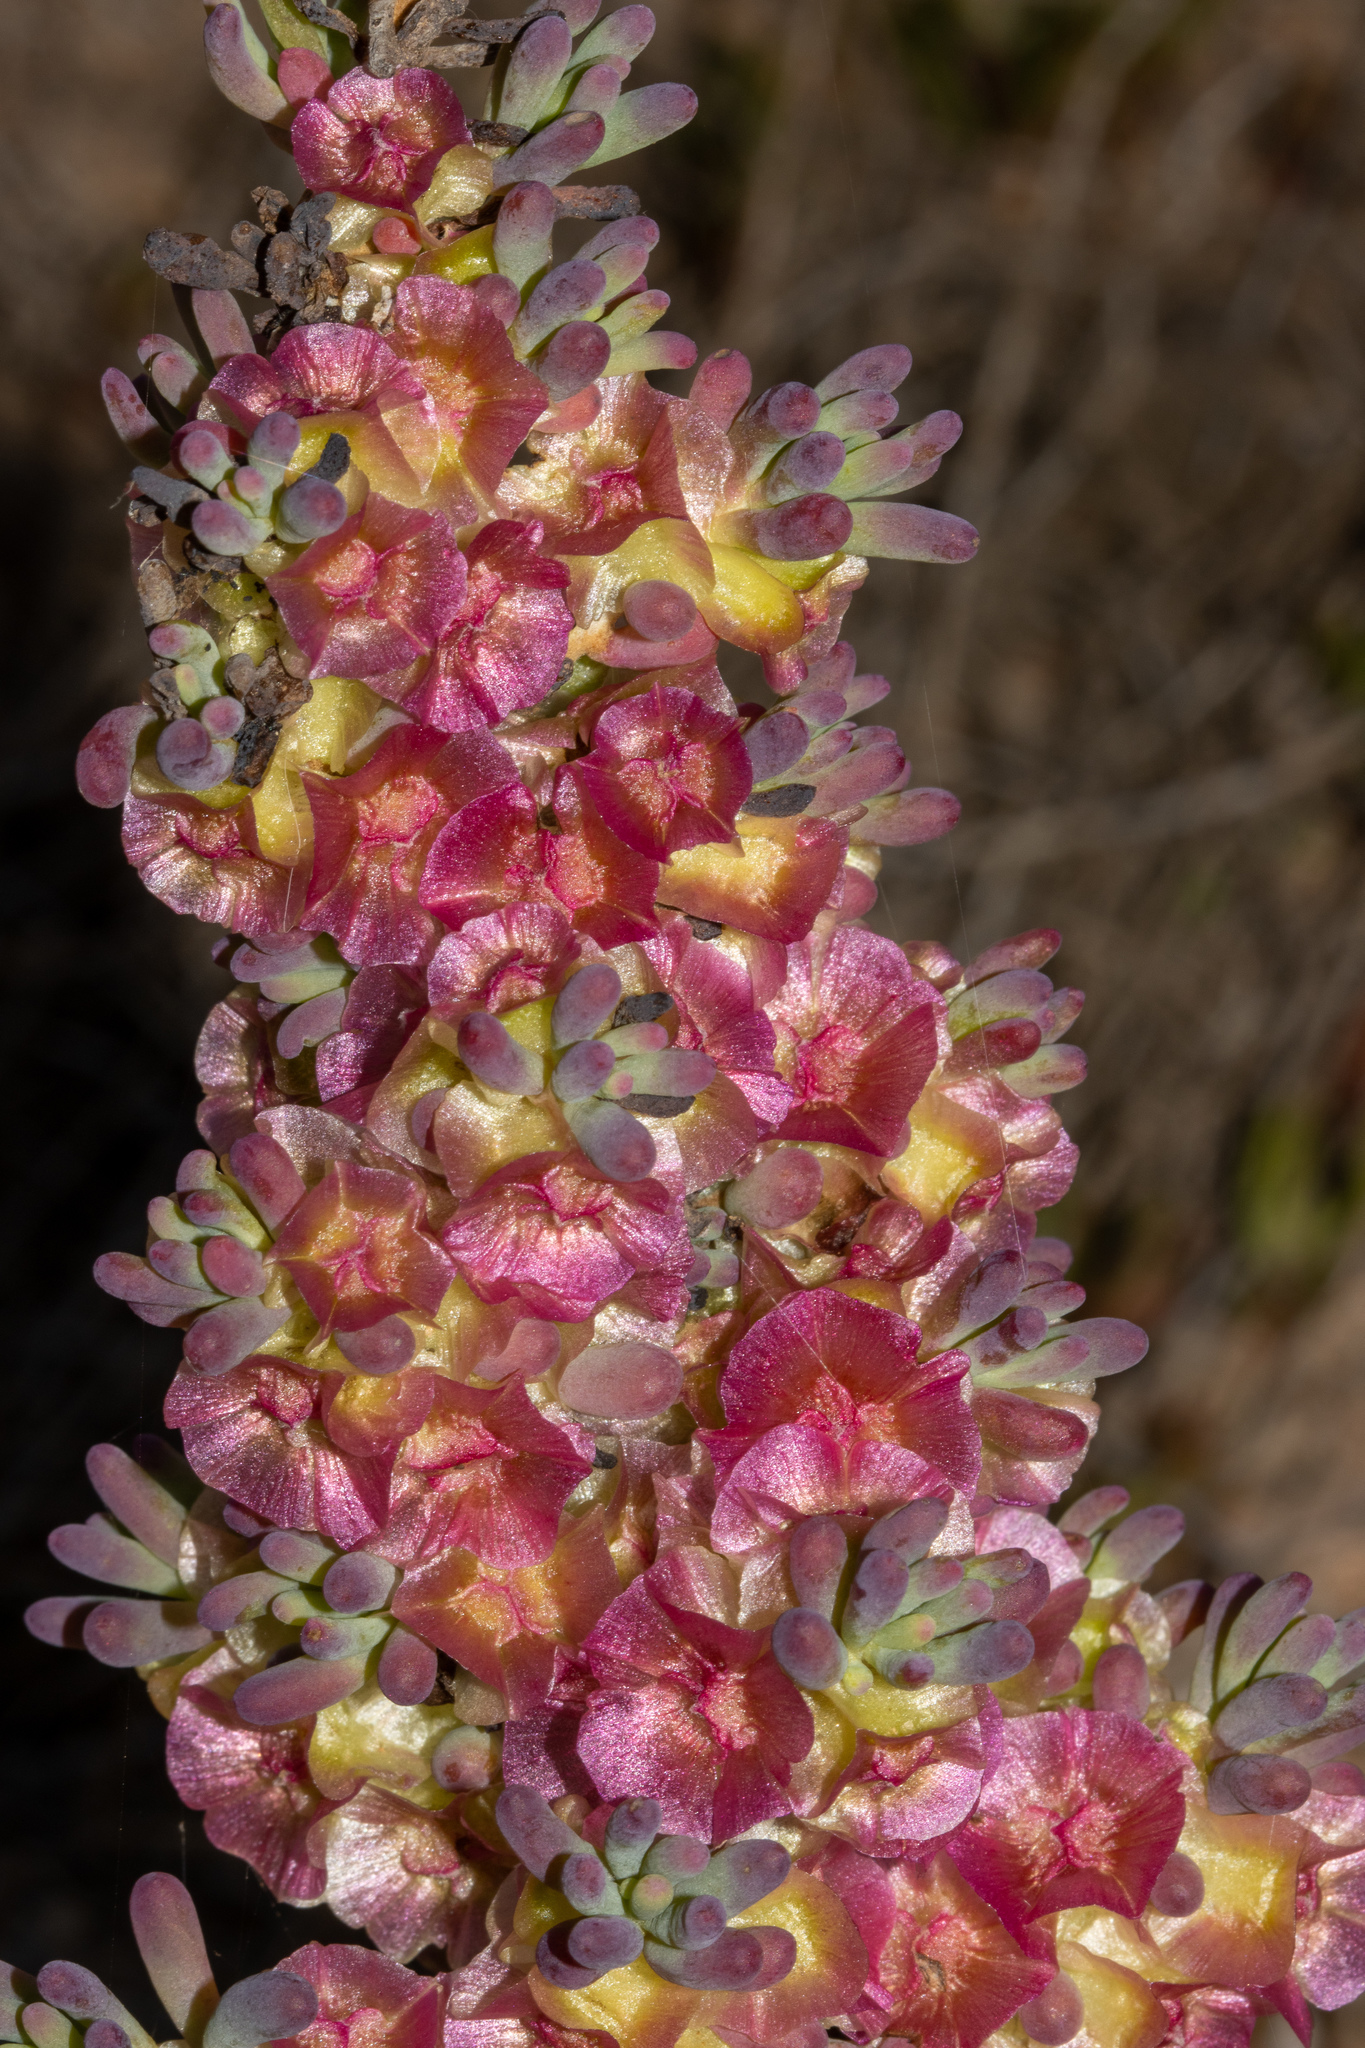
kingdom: Plantae
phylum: Tracheophyta
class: Magnoliopsida
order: Caryophyllales
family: Amaranthaceae
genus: Maireana
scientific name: Maireana erioclada
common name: Rosy bluebush
